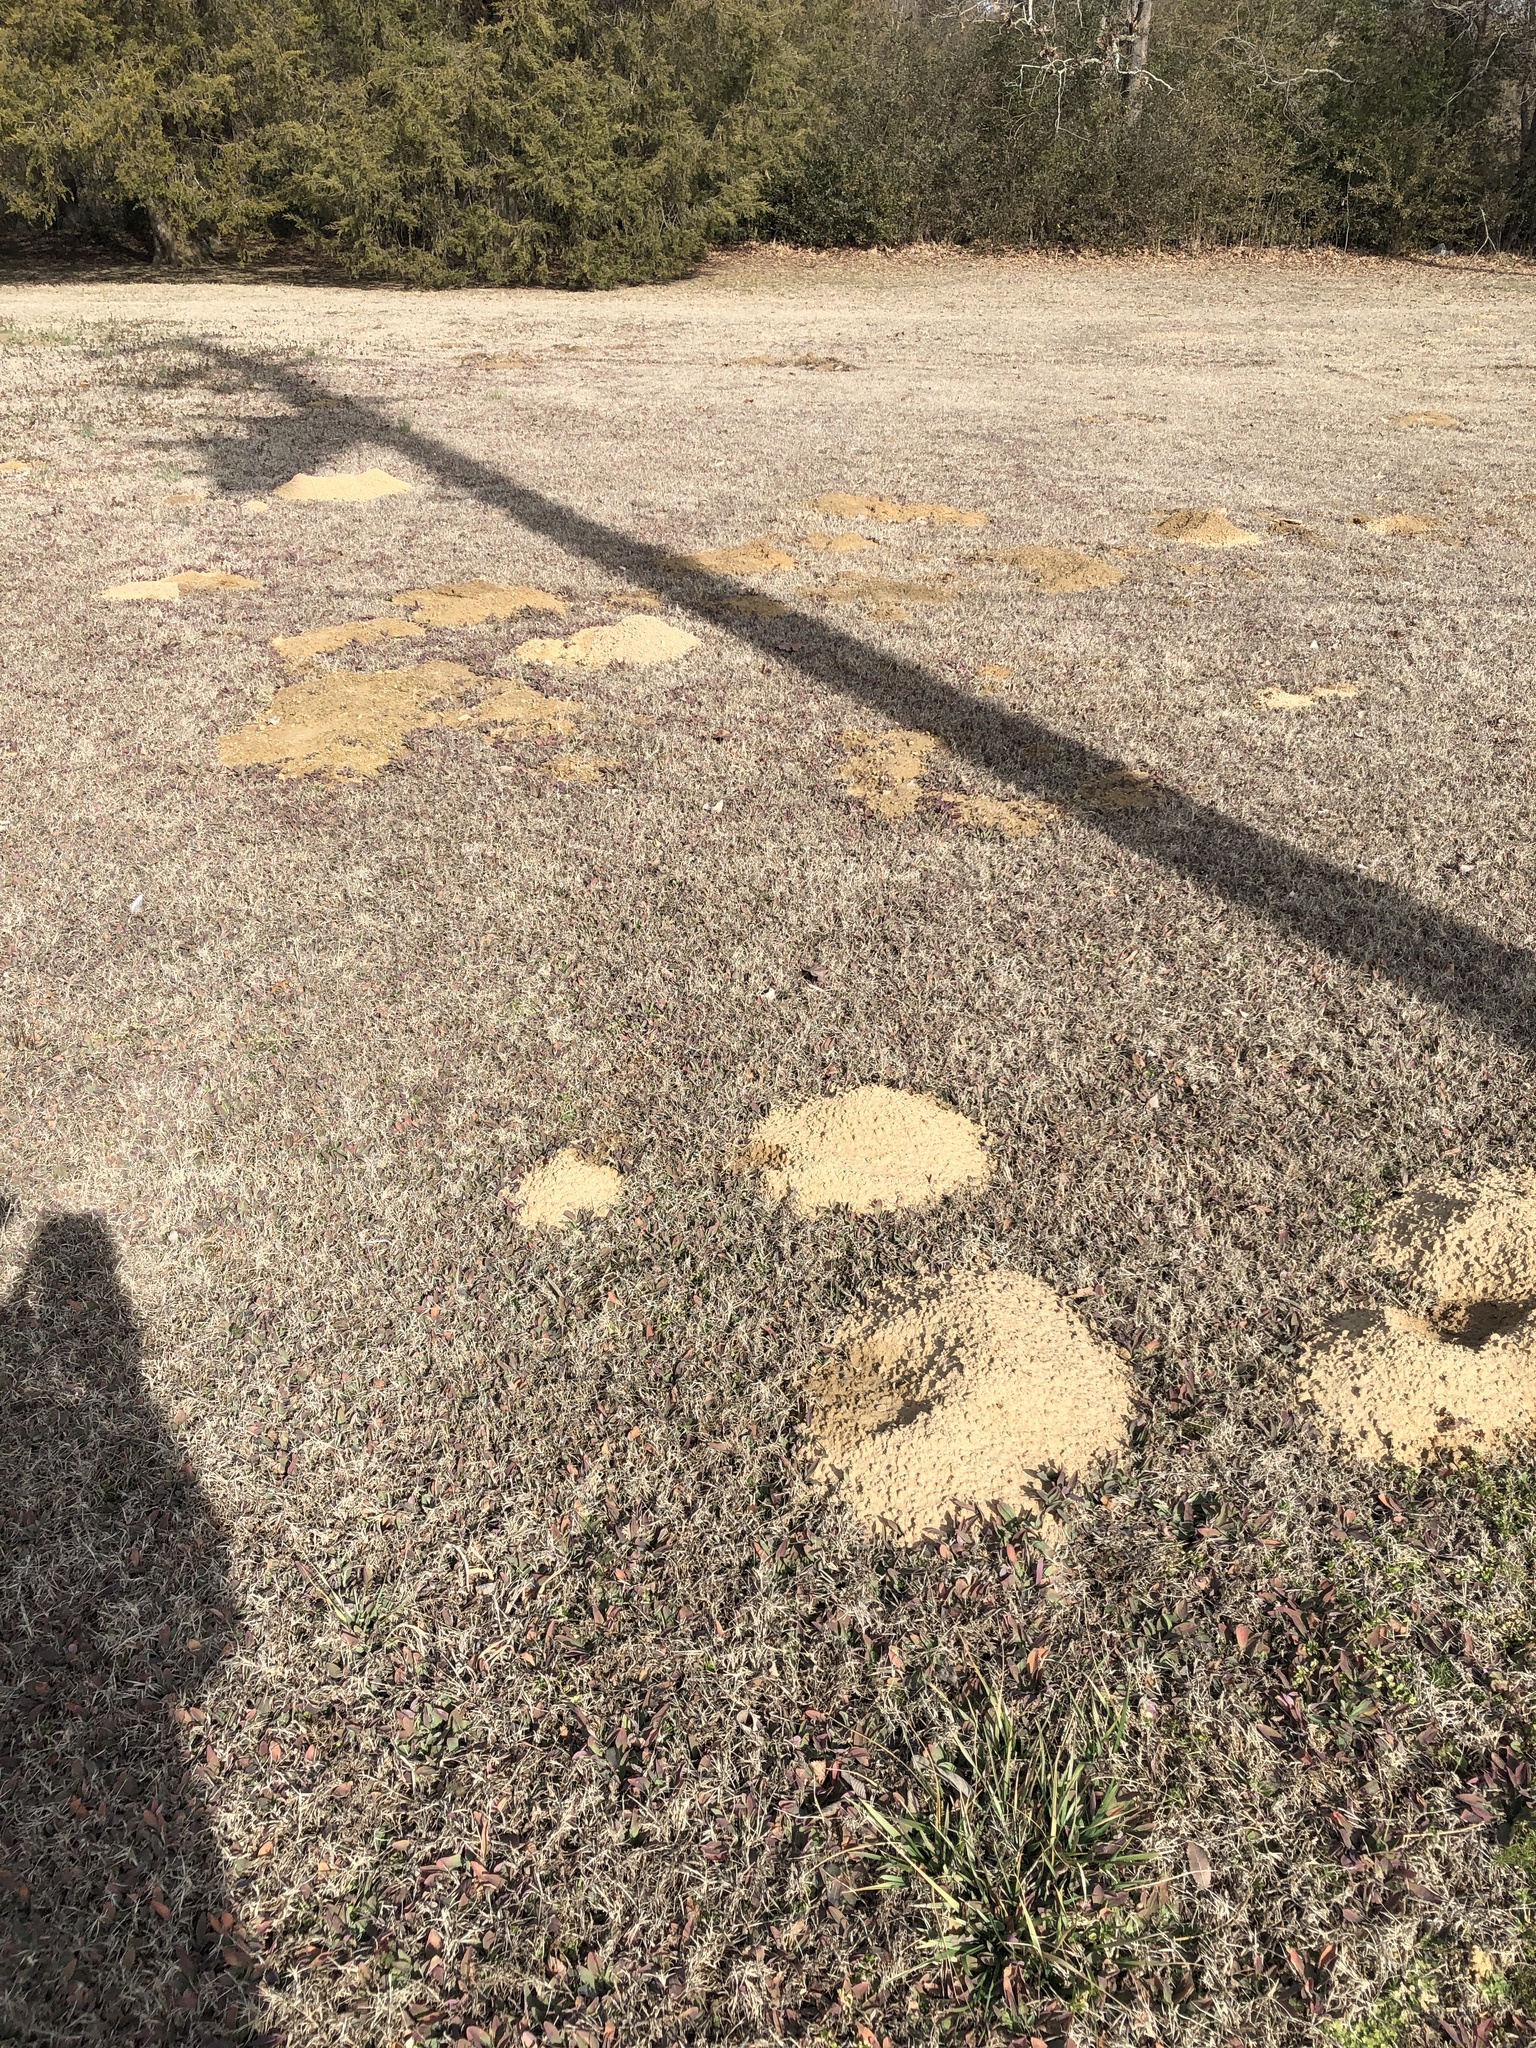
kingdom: Animalia
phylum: Chordata
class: Mammalia
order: Rodentia
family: Geomyidae
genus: Geomys
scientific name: Geomys breviceps
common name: Baird's pocket gopher
